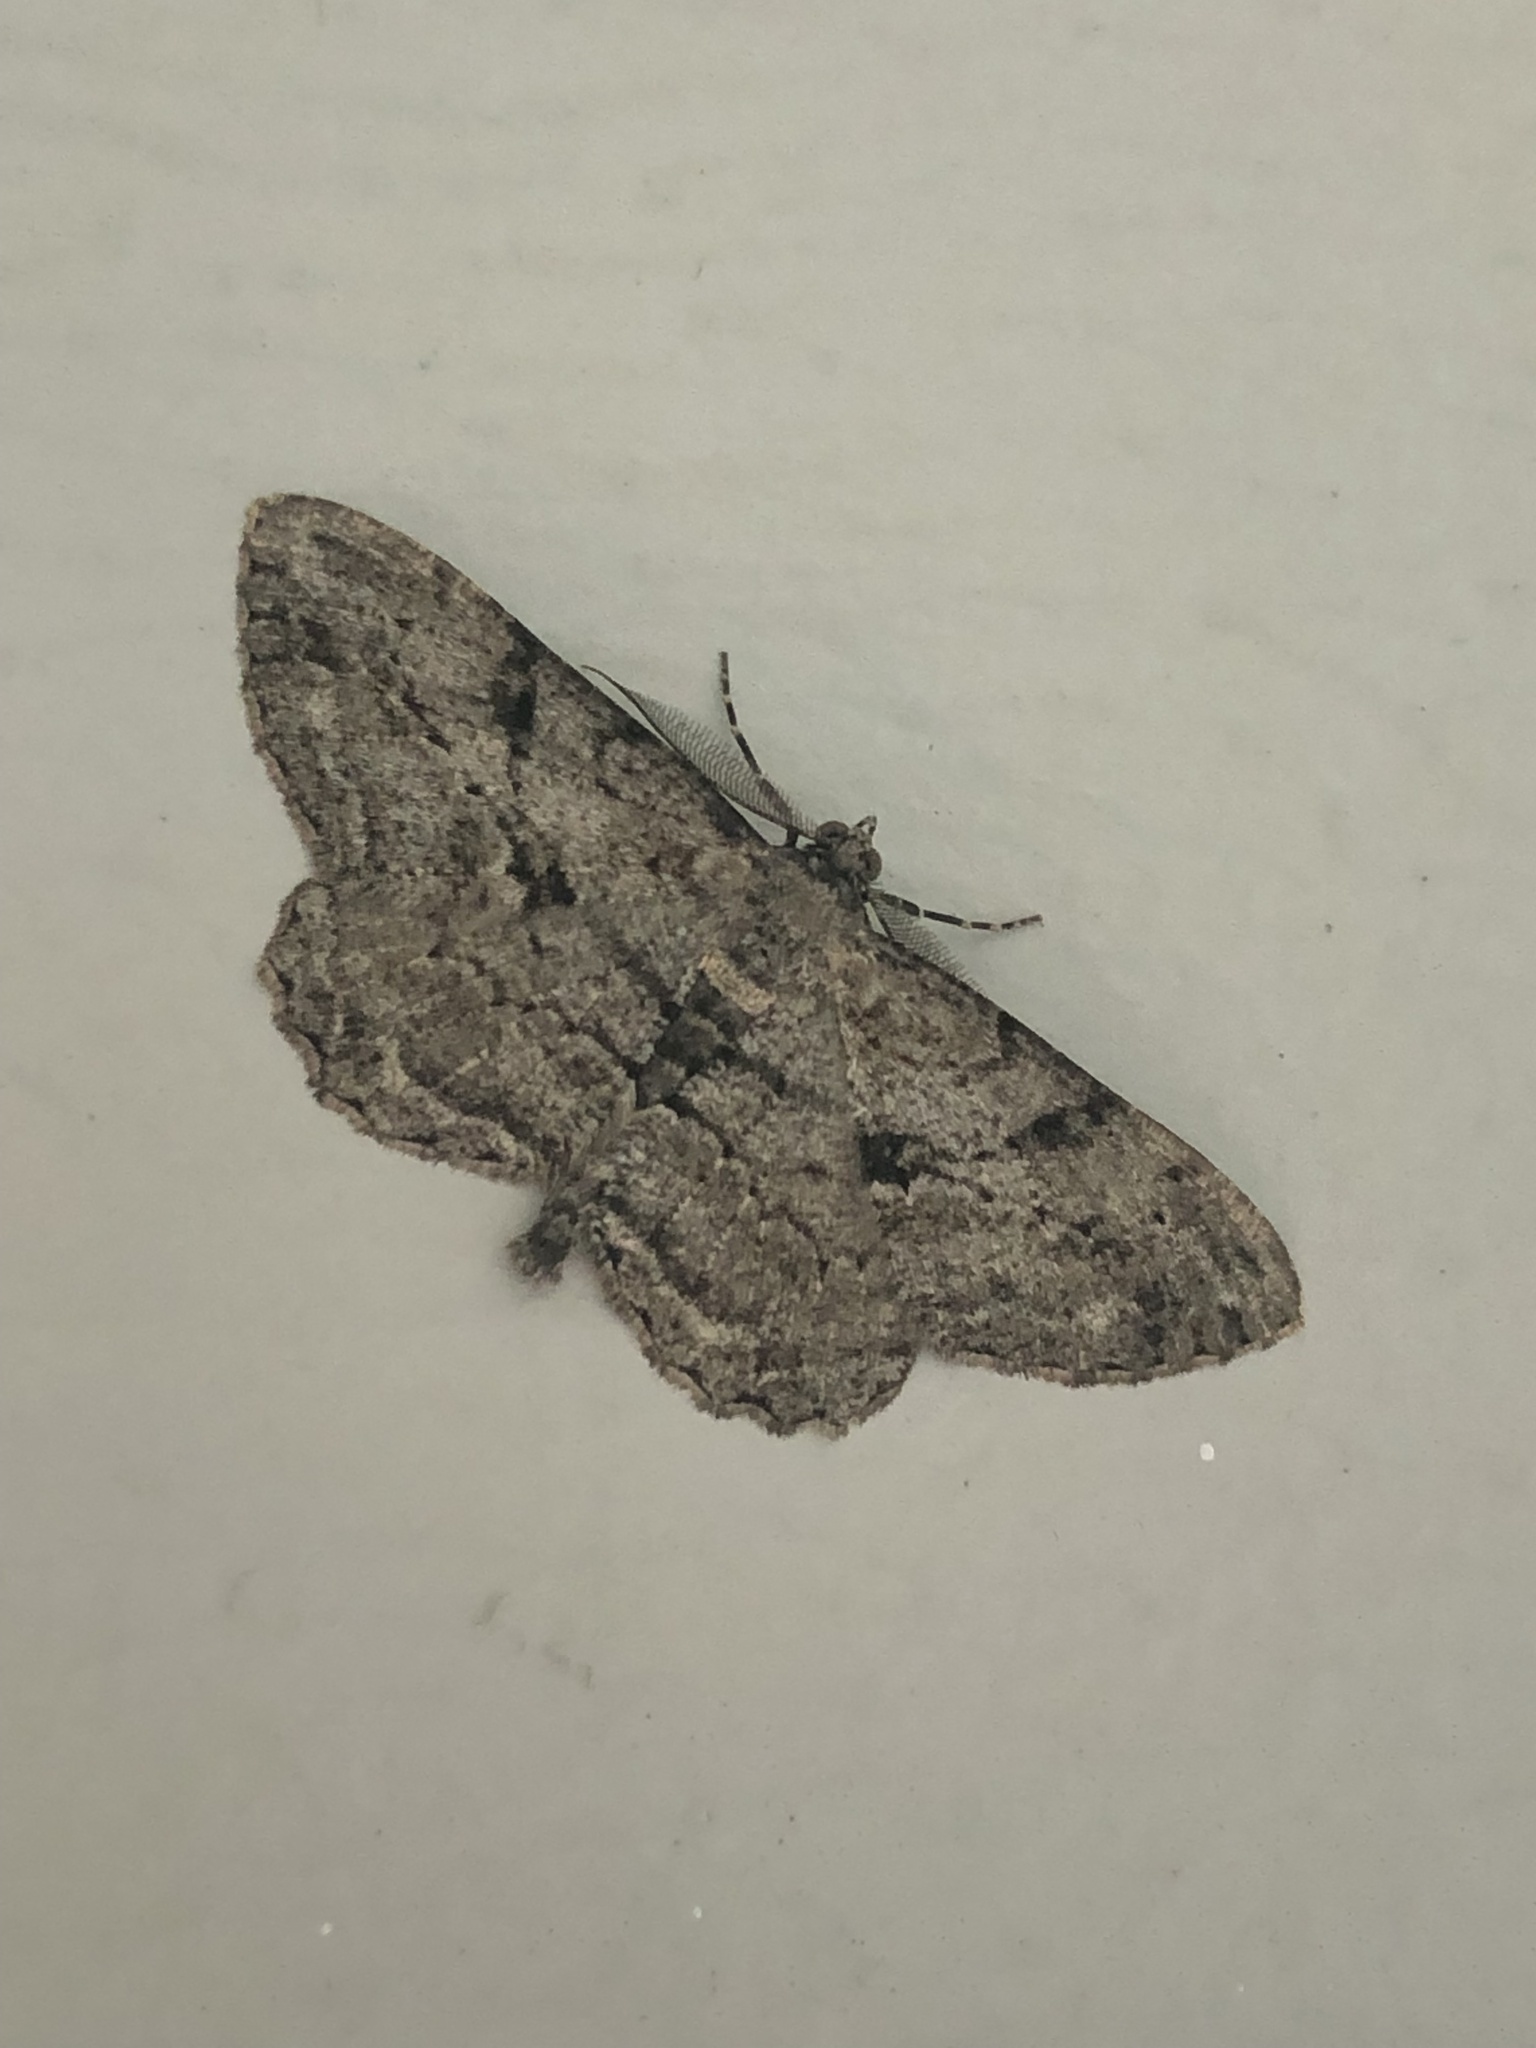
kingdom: Animalia
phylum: Arthropoda
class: Insecta
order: Lepidoptera
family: Geometridae
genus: Peribatodes
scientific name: Peribatodes rhomboidaria
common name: Willow beauty
